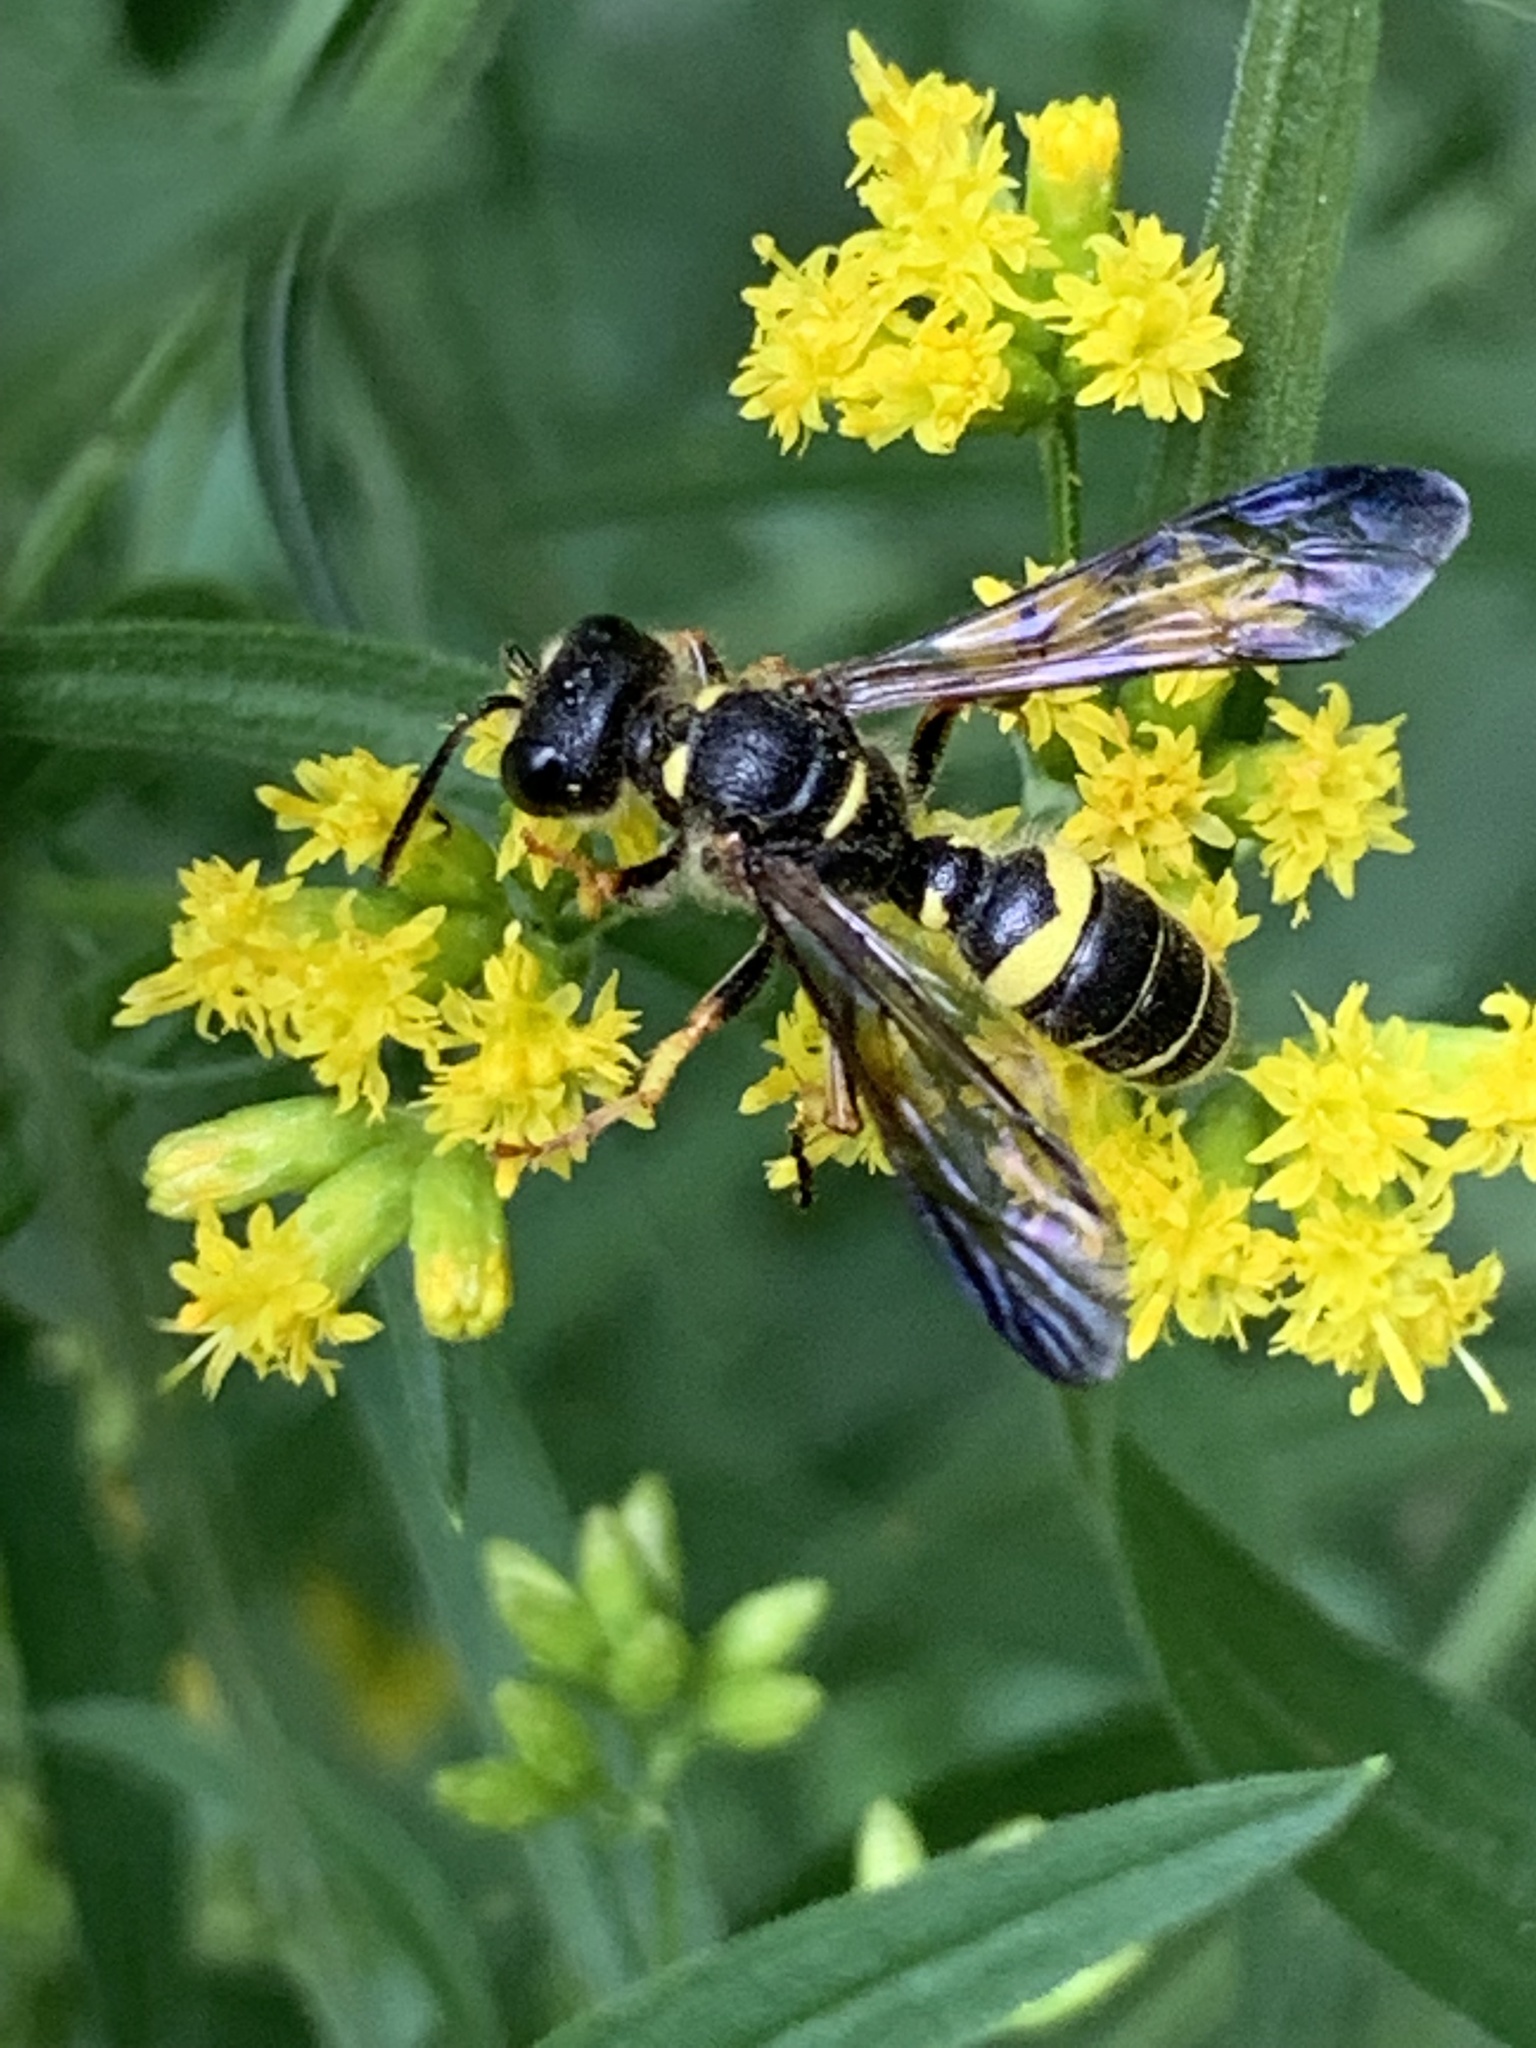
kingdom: Animalia
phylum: Arthropoda
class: Insecta
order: Hymenoptera
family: Crabronidae
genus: Cerceris
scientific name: Cerceris
